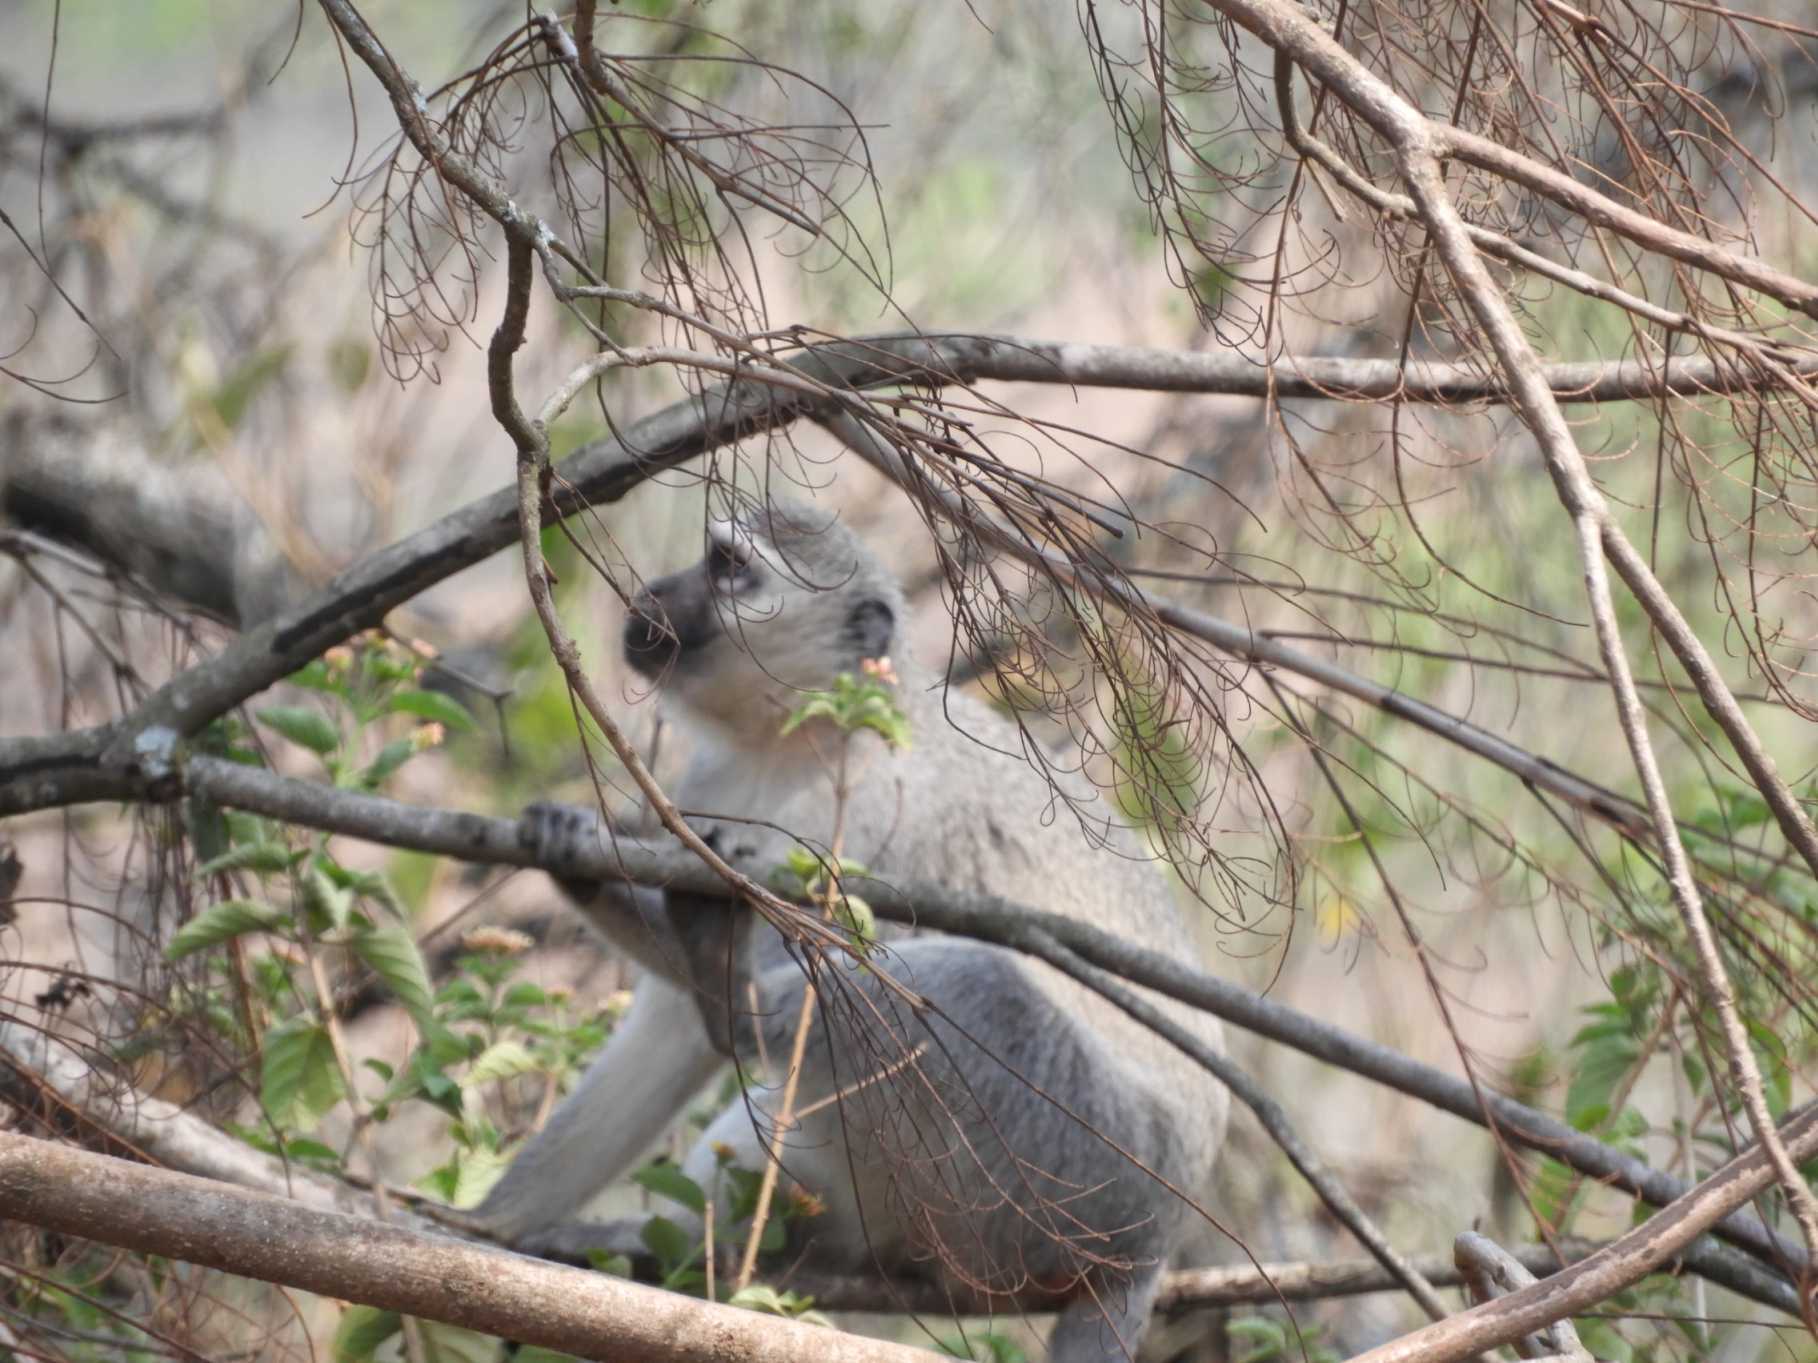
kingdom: Animalia
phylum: Chordata
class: Mammalia
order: Primates
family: Cercopithecidae
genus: Chlorocebus
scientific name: Chlorocebus pygerythrus
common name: Vervet monkey
